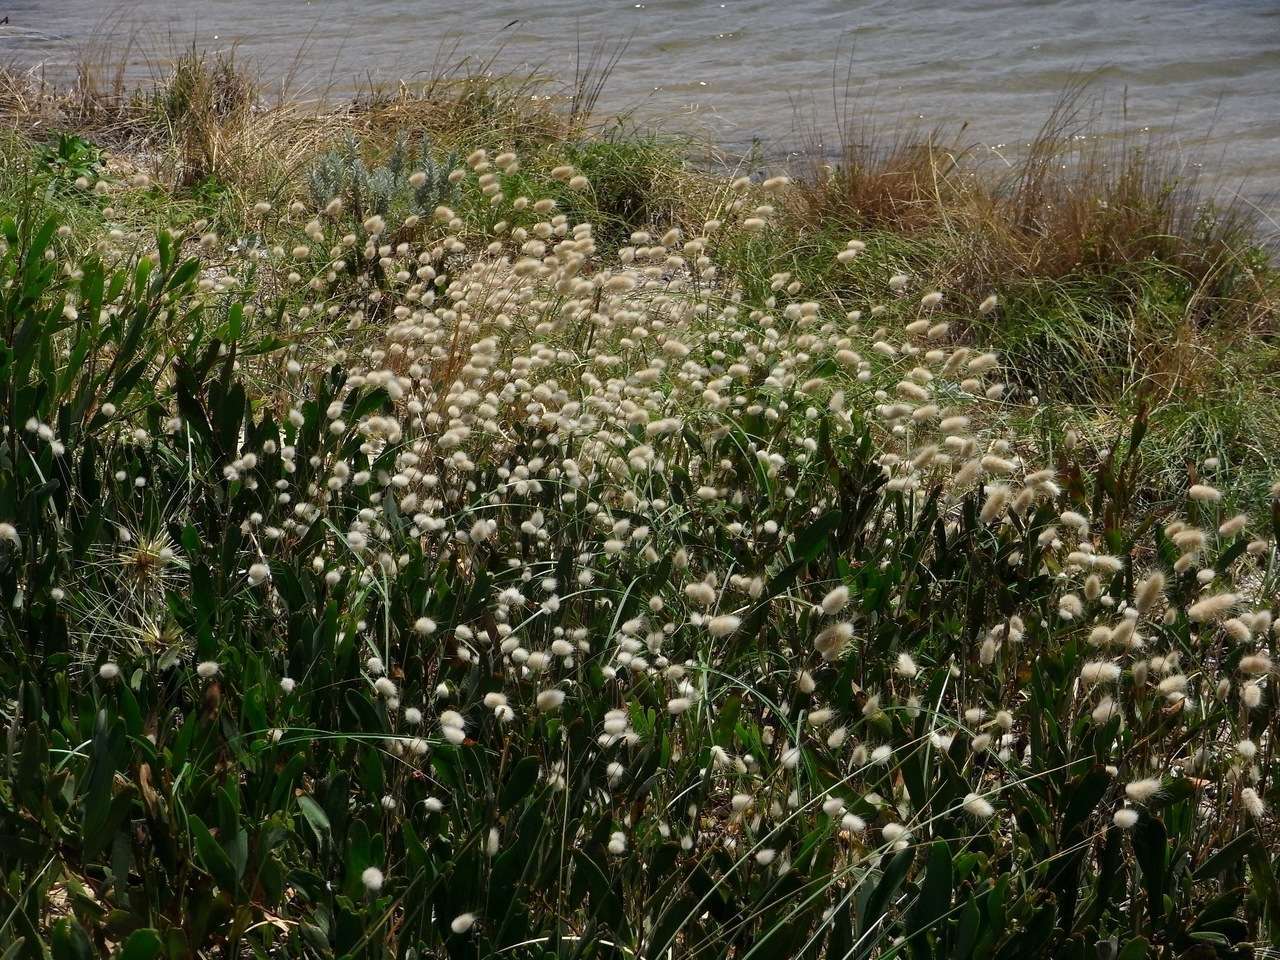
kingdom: Plantae
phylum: Tracheophyta
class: Liliopsida
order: Poales
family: Poaceae
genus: Lagurus
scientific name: Lagurus ovatus
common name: Hare's-tail
